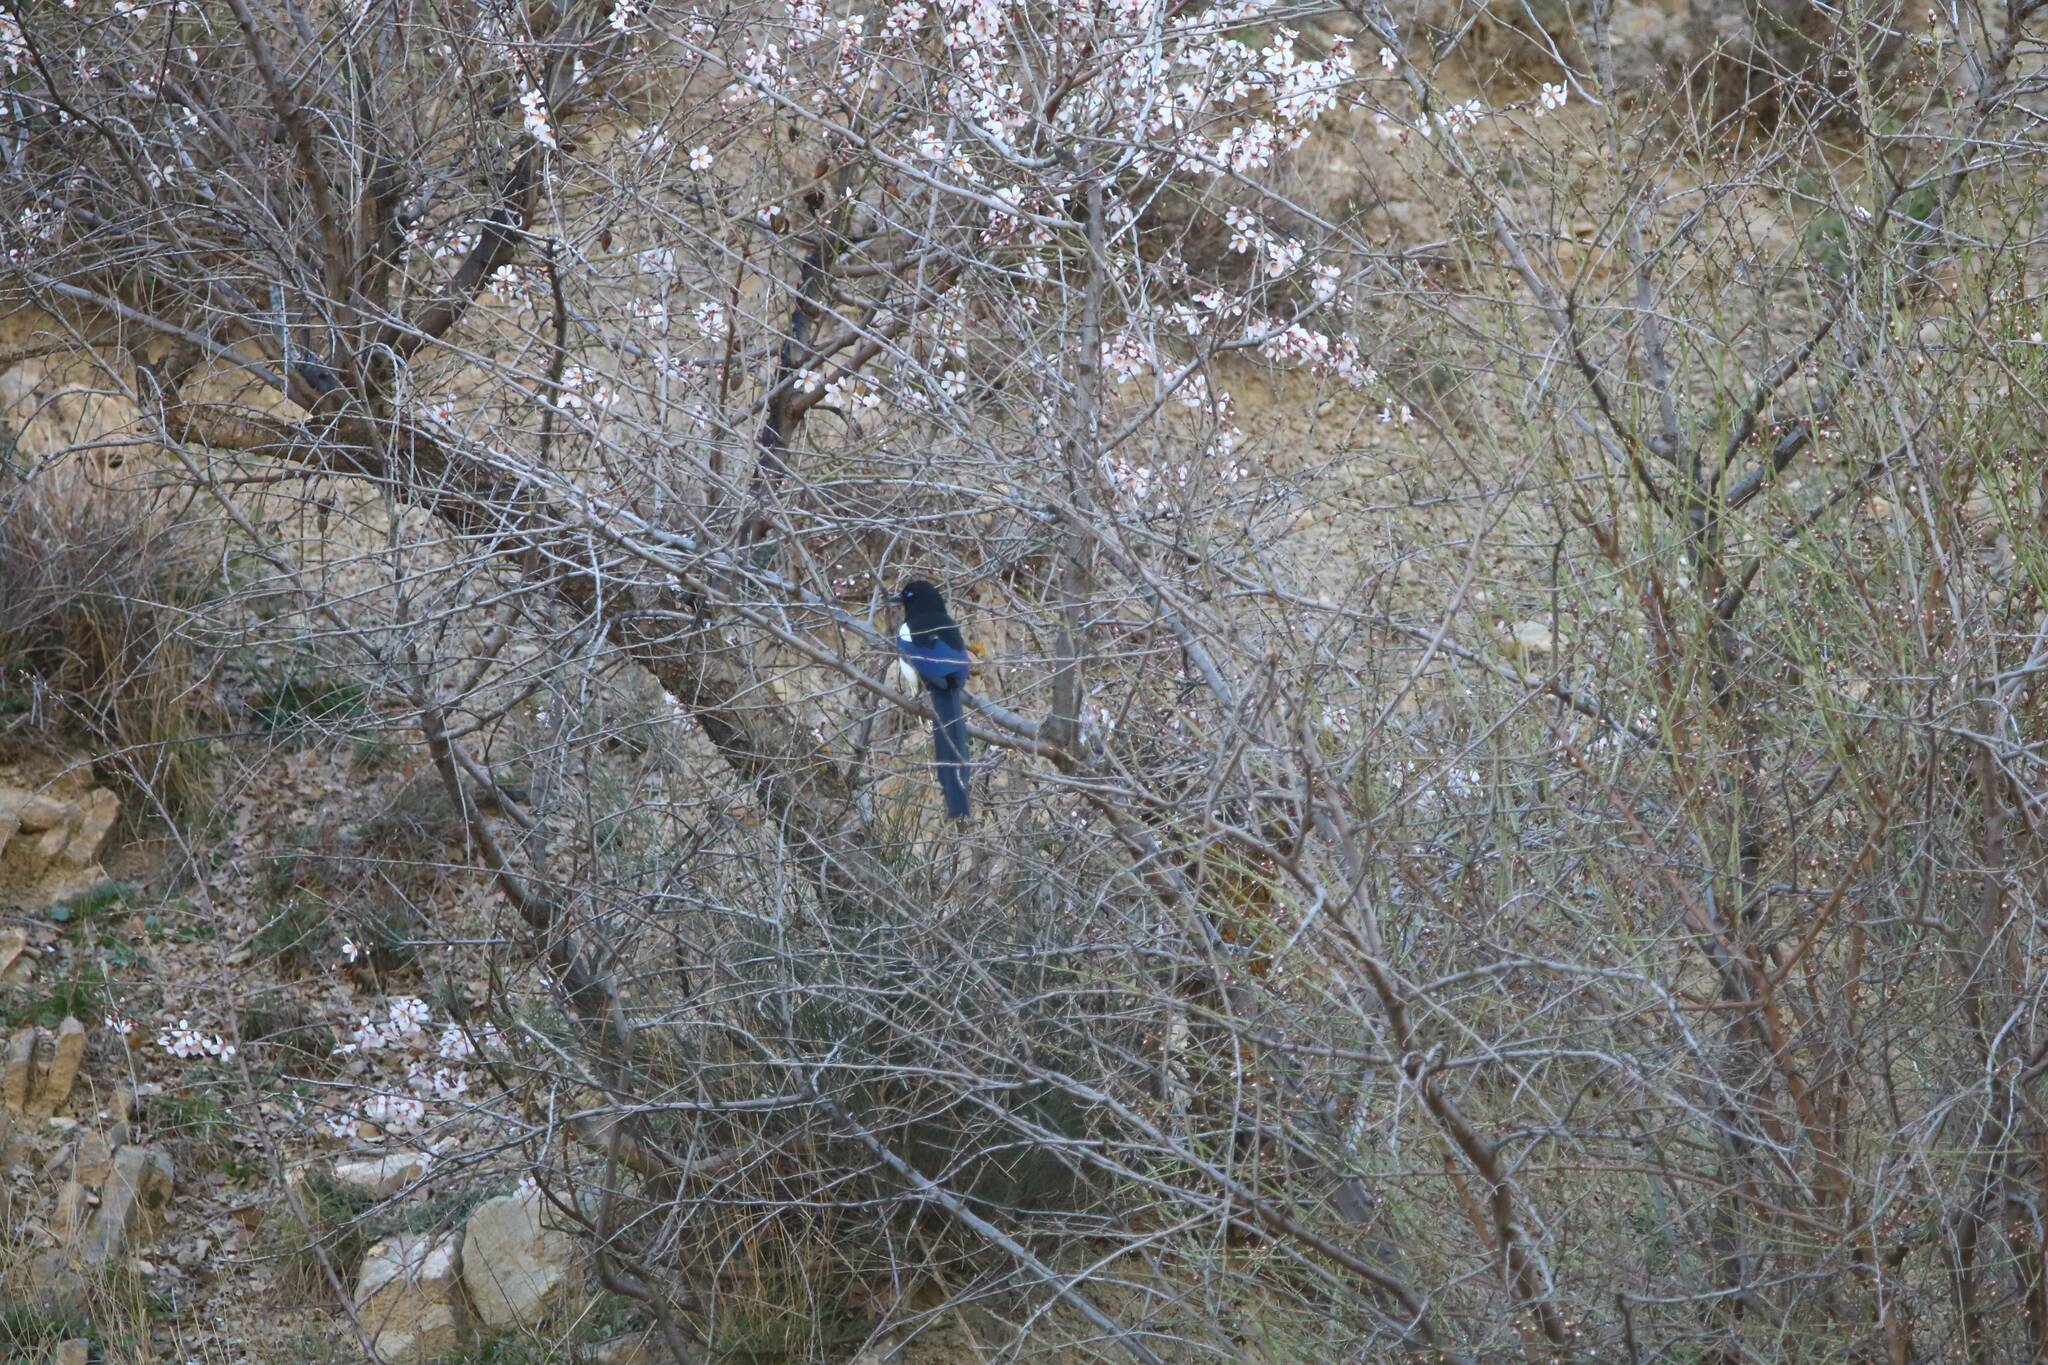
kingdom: Animalia
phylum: Chordata
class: Aves
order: Passeriformes
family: Corvidae
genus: Pica
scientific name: Pica mauritanica
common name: Maghreb magpie
